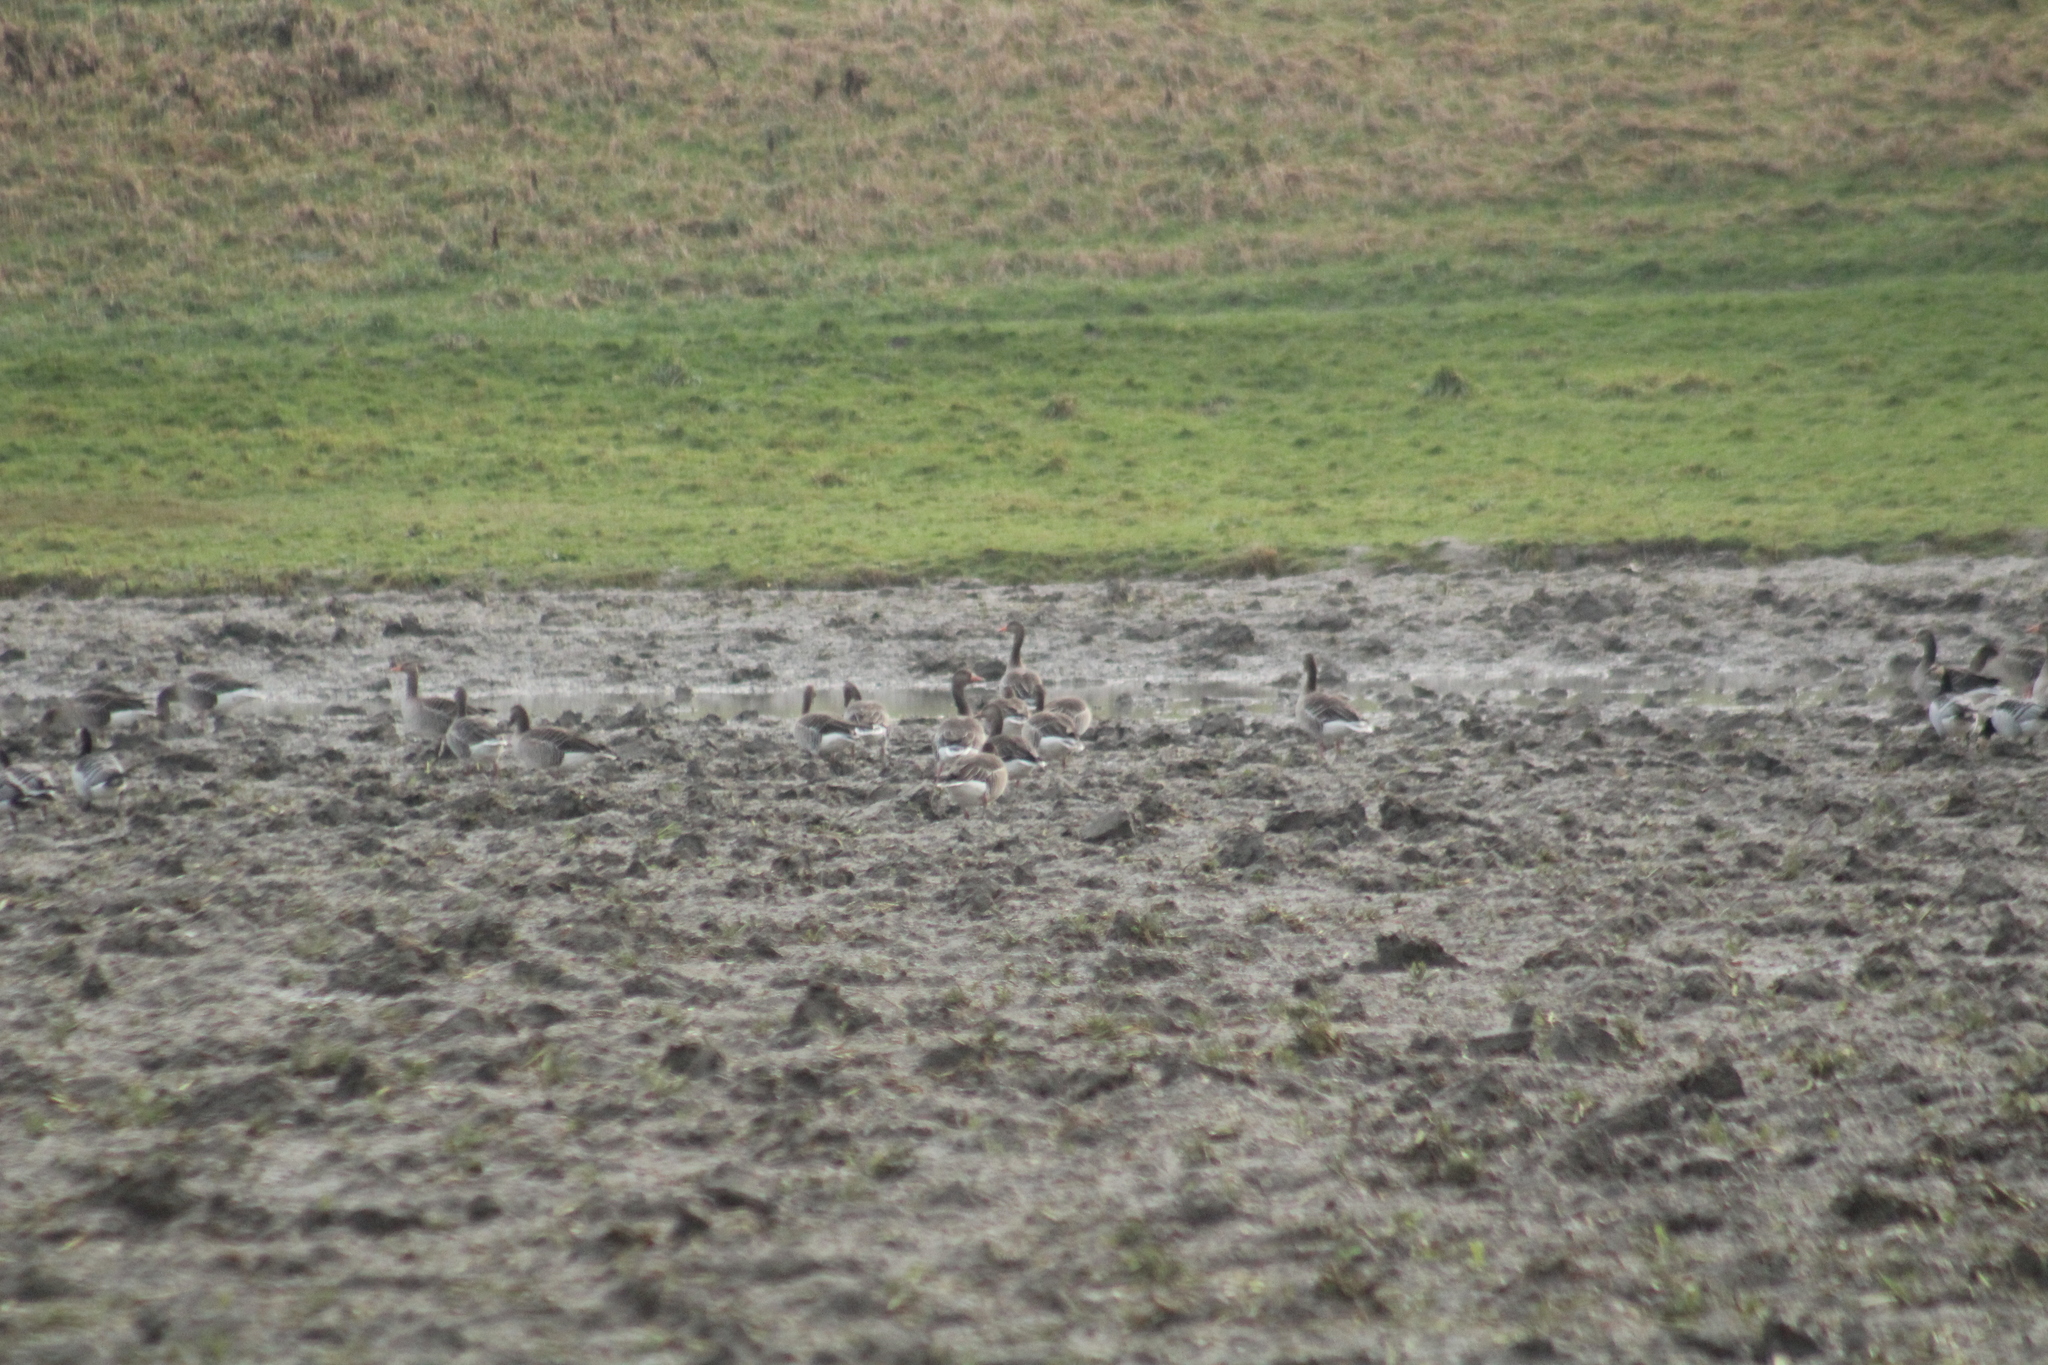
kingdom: Animalia
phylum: Chordata
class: Aves
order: Anseriformes
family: Anatidae
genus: Anser
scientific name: Anser anser
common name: Greylag goose
